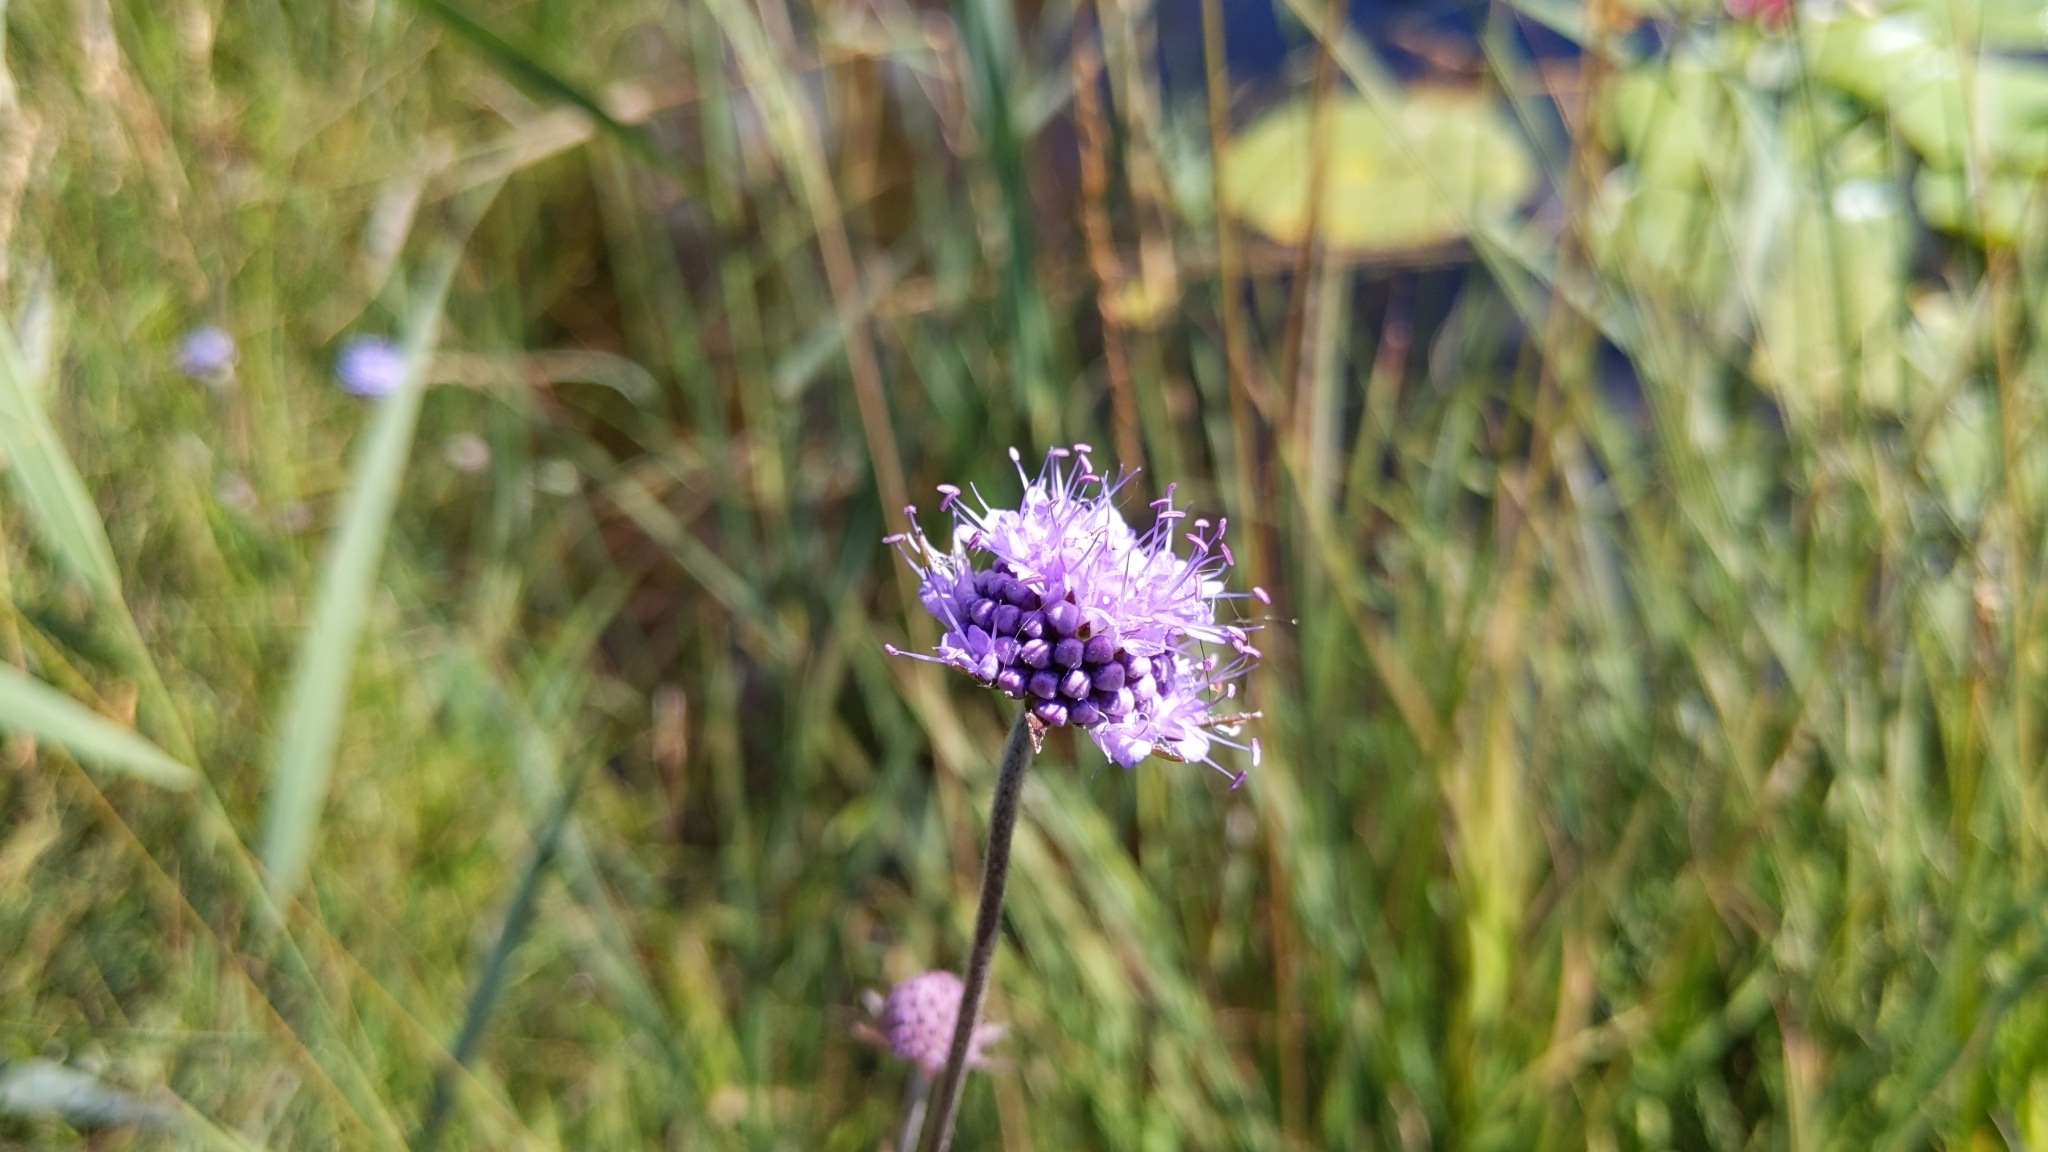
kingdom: Plantae
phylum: Tracheophyta
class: Magnoliopsida
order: Dipsacales
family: Caprifoliaceae
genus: Succisa
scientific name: Succisa pratensis
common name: Devil's-bit
